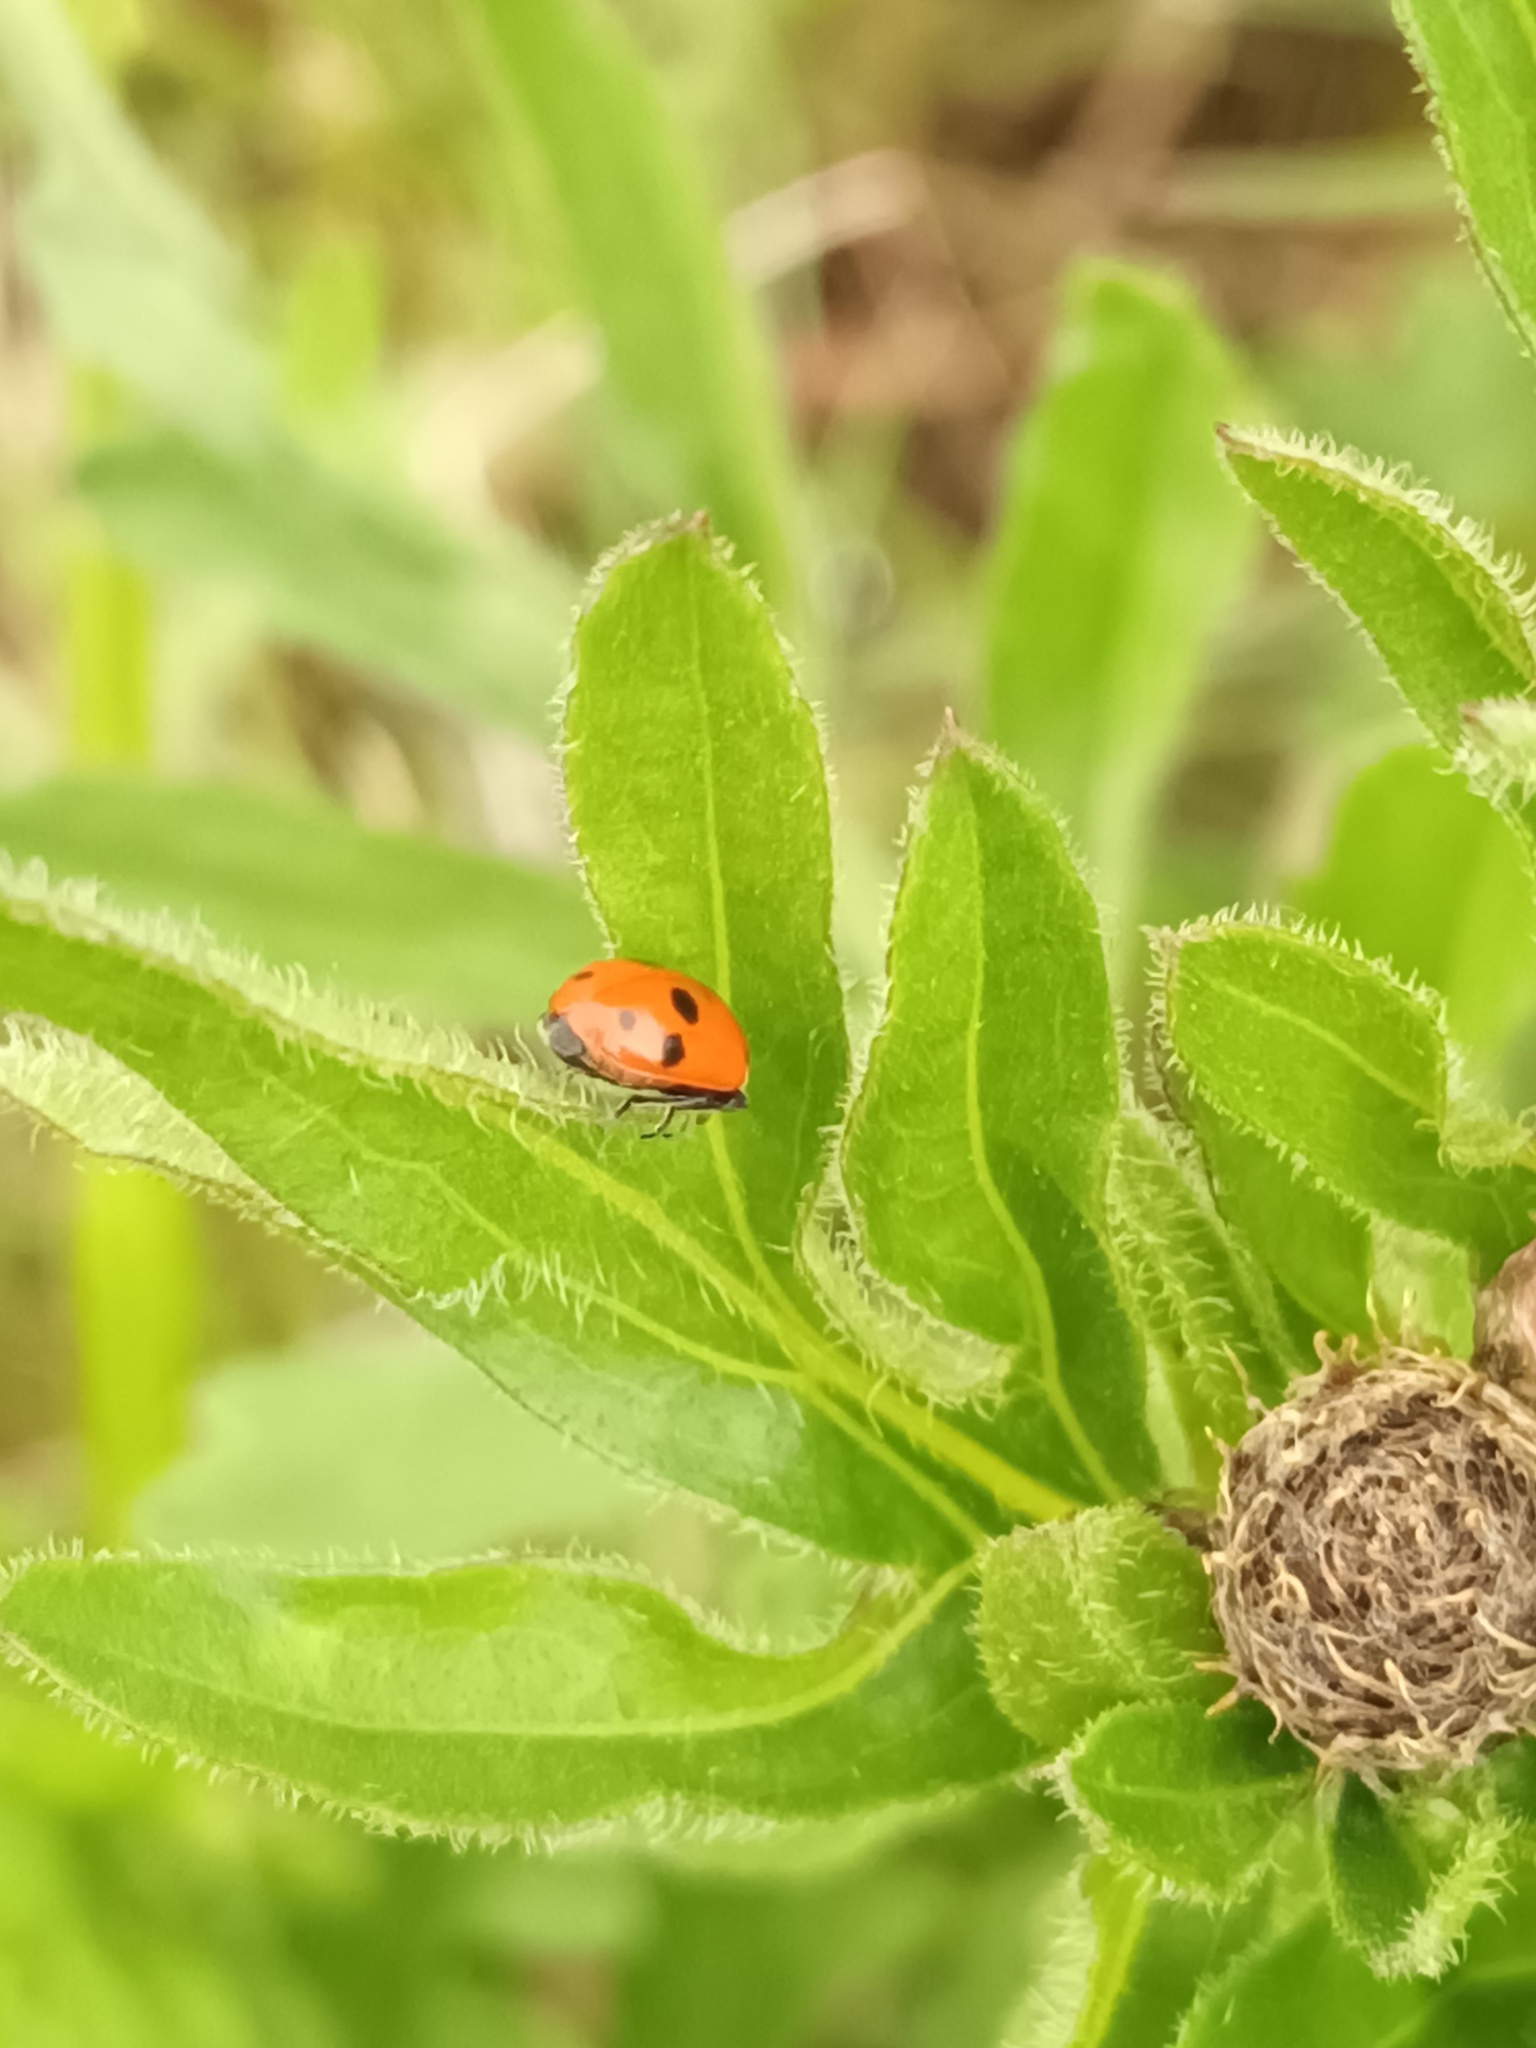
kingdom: Animalia
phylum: Arthropoda
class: Insecta
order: Coleoptera
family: Coccinellidae
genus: Hippodamia
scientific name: Hippodamia variegata
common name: Ladybird beetle
